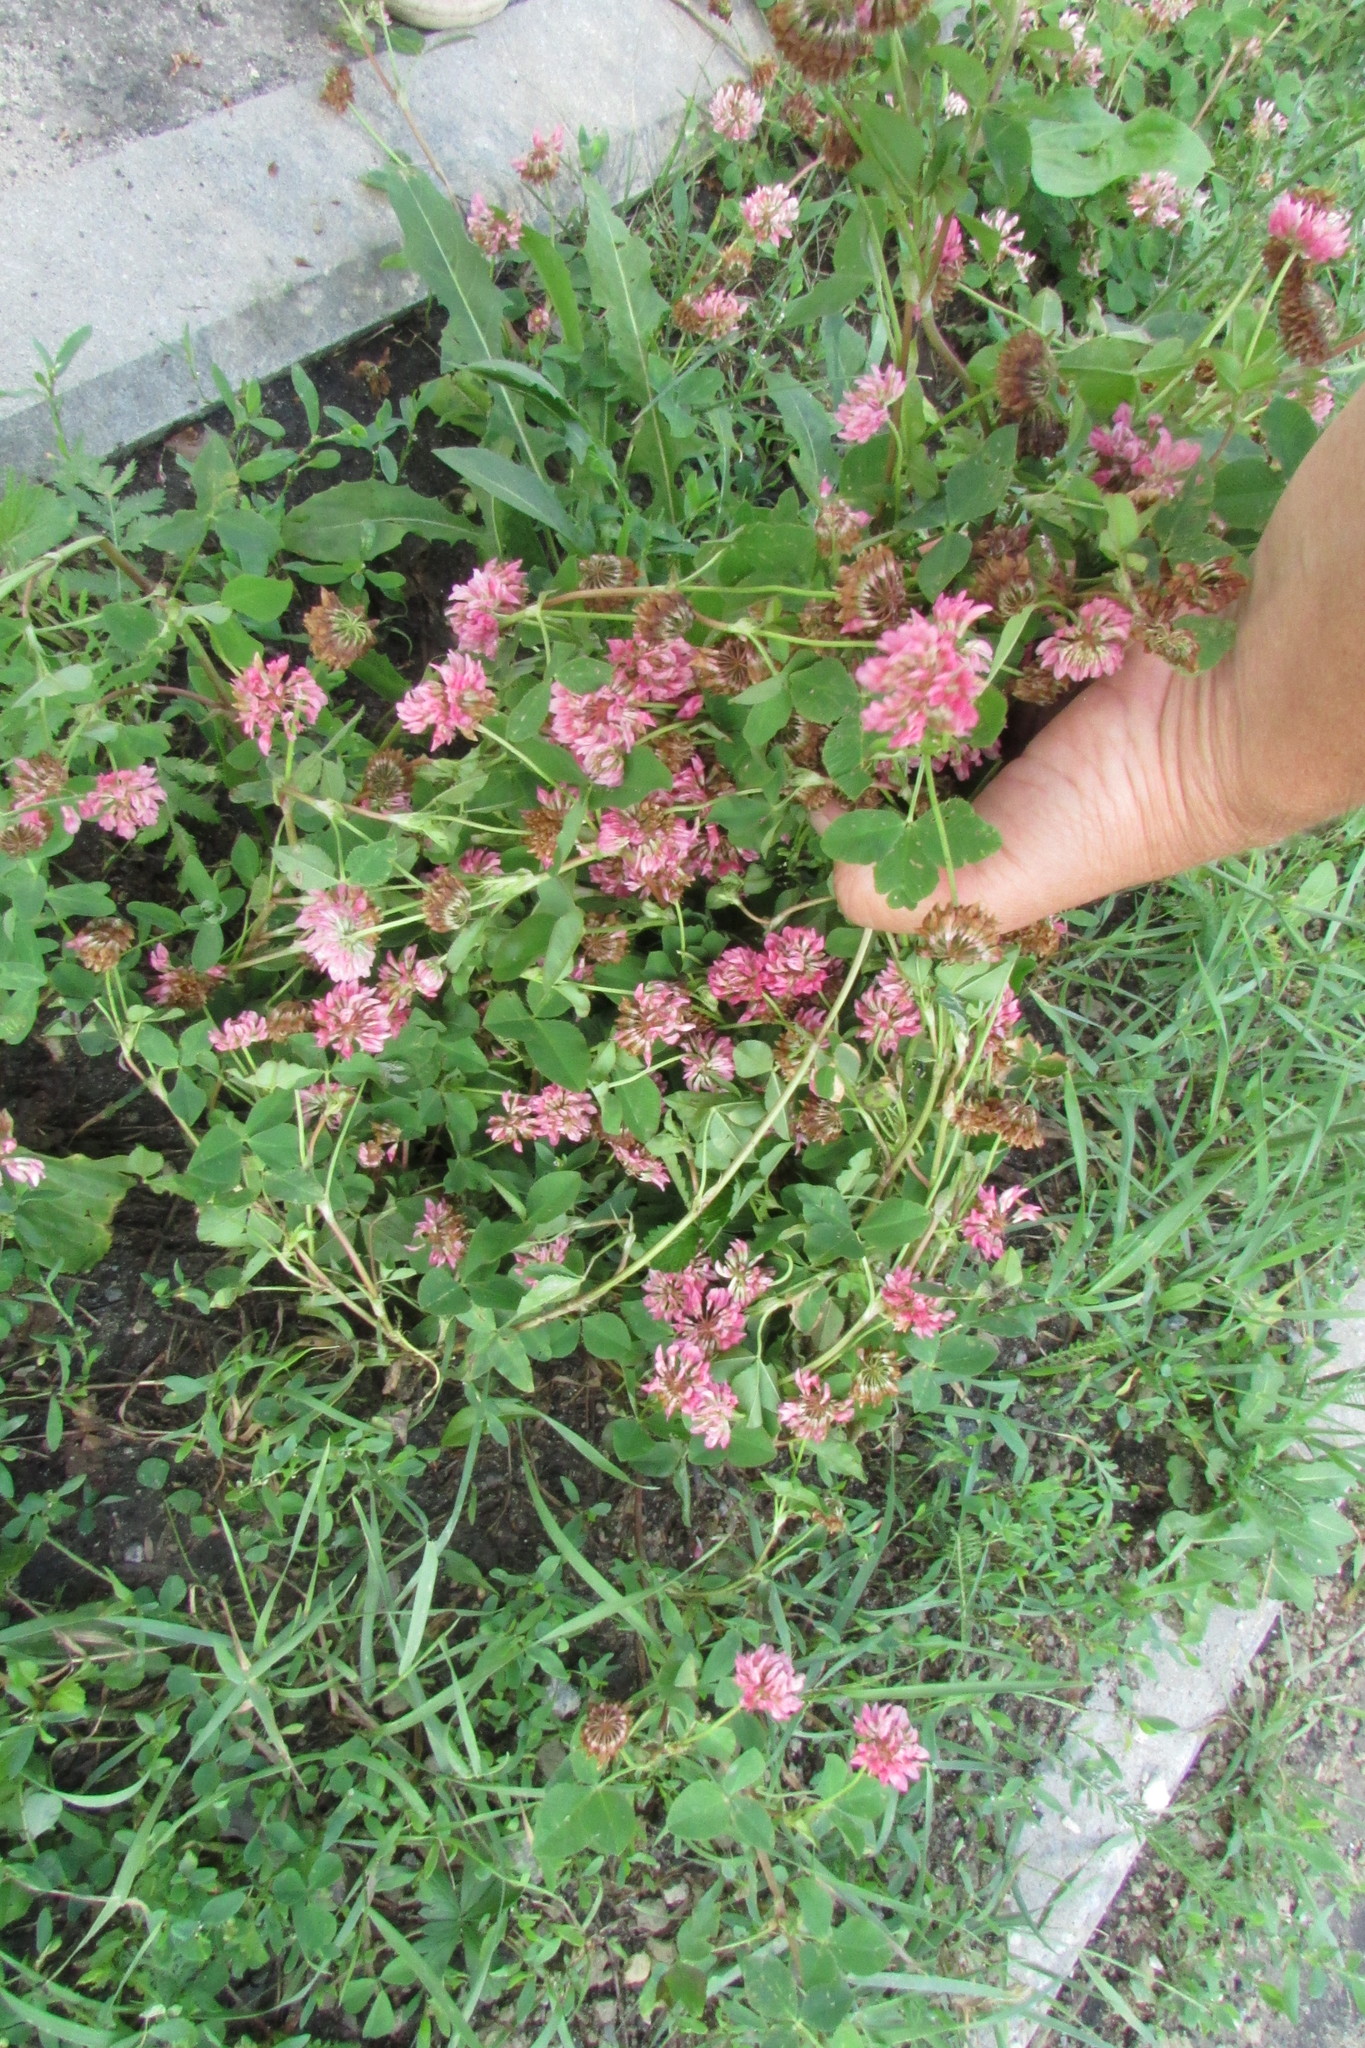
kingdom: Plantae
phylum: Tracheophyta
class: Magnoliopsida
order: Fabales
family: Fabaceae
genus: Trifolium
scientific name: Trifolium hybridum
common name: Alsike clover
